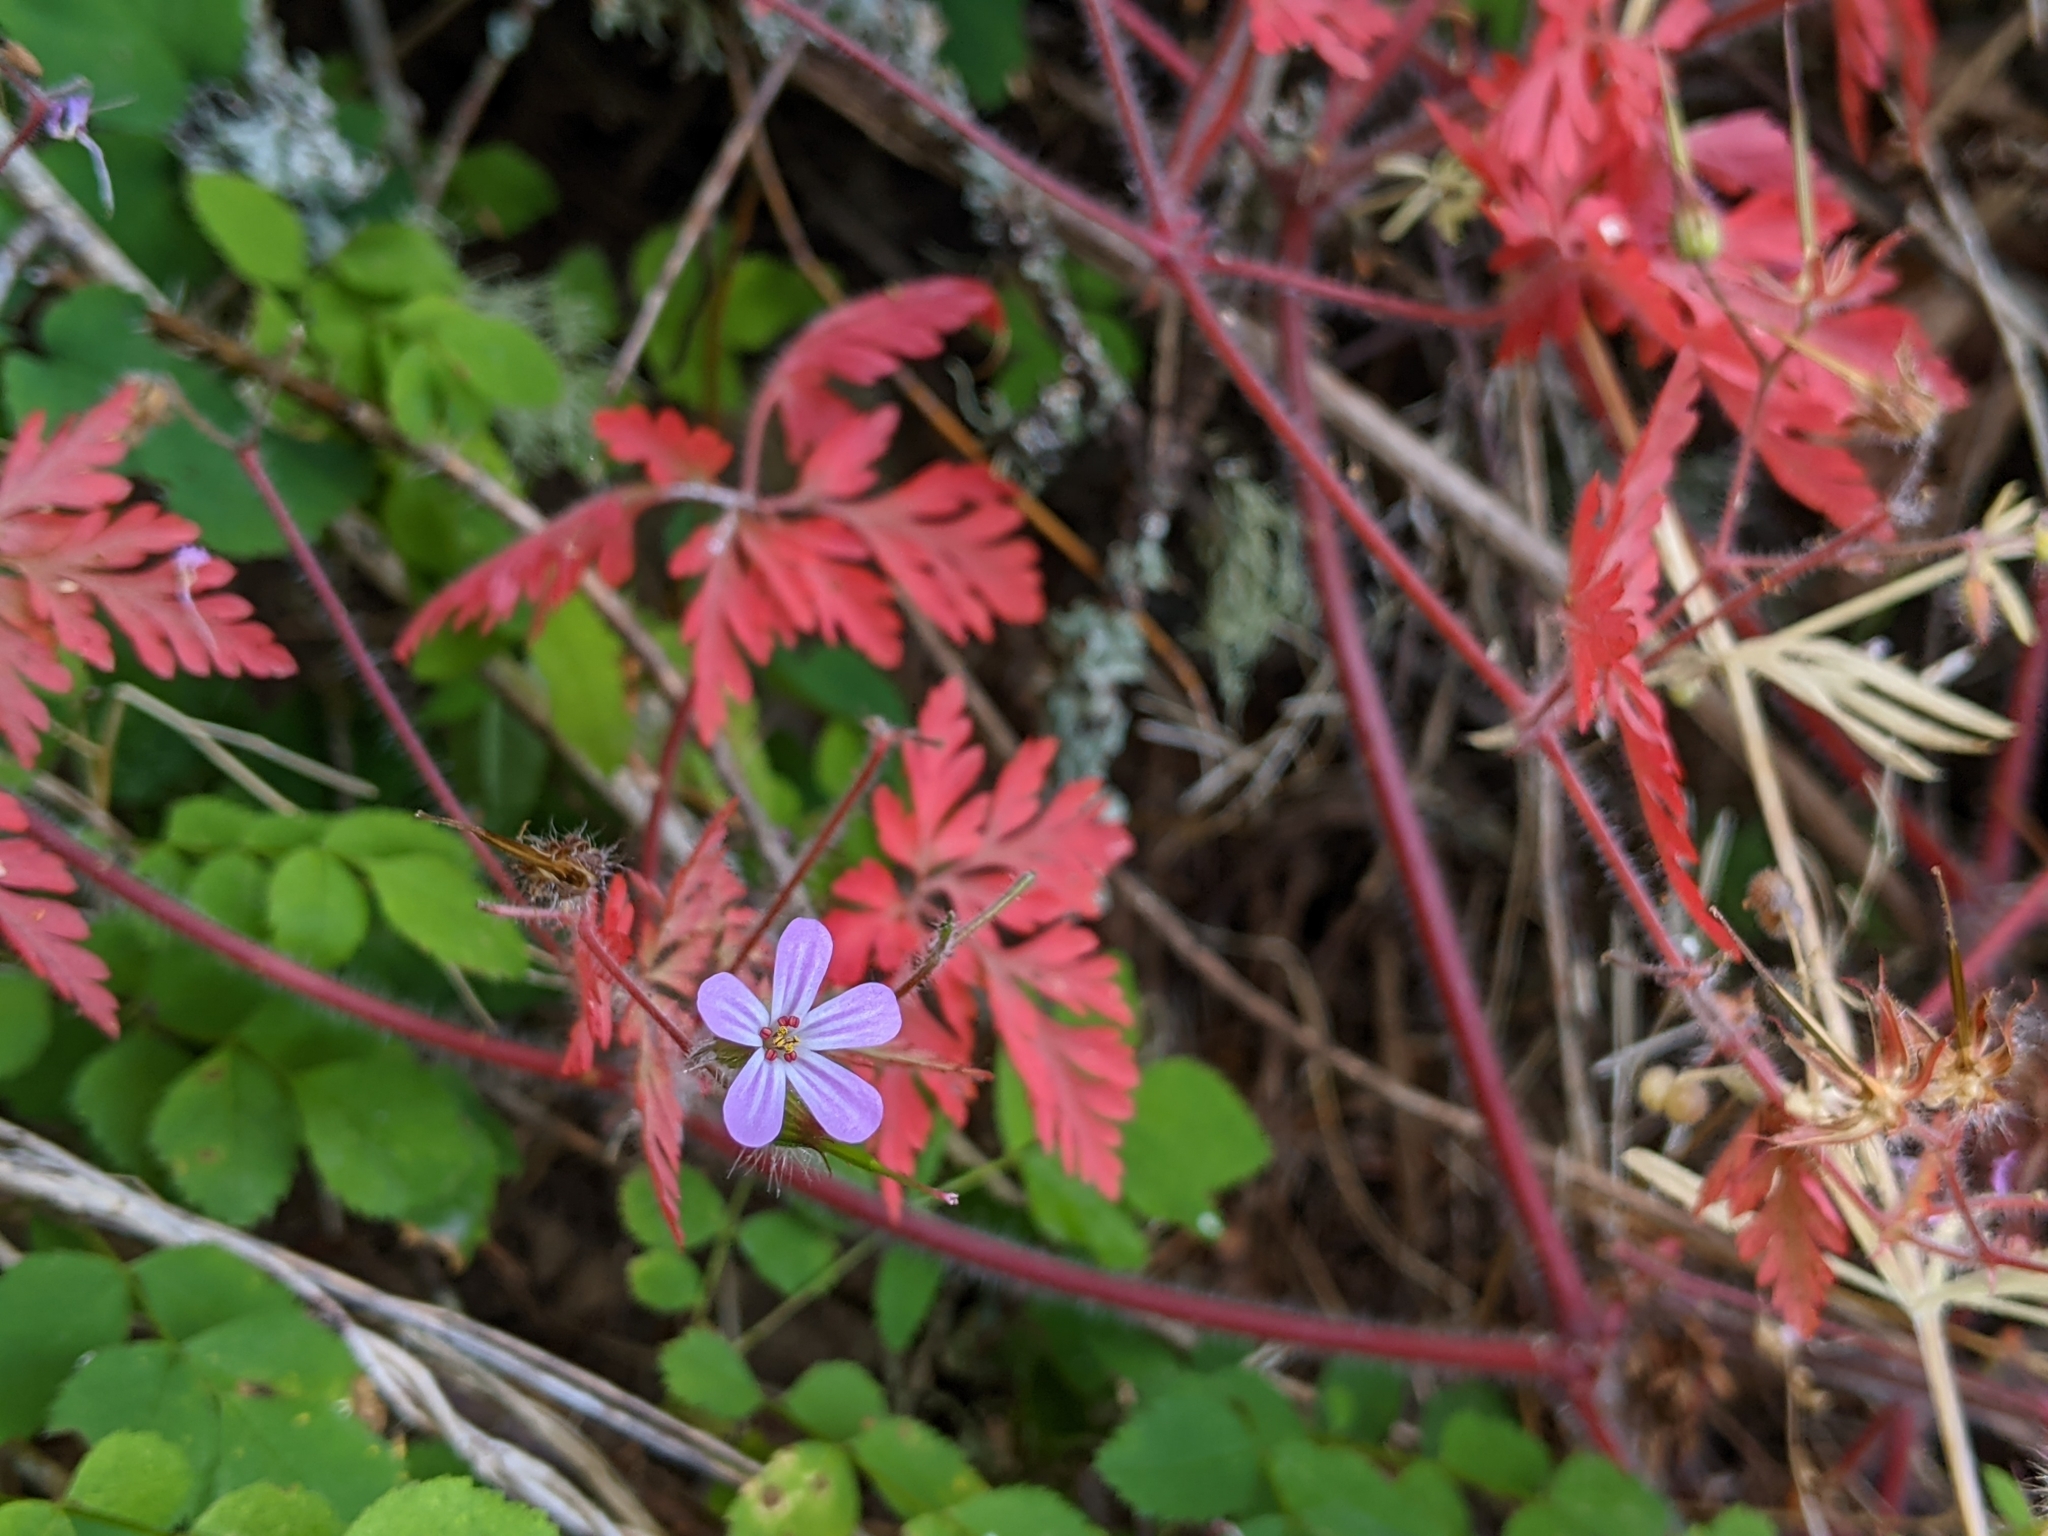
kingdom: Plantae
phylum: Tracheophyta
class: Magnoliopsida
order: Geraniales
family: Geraniaceae
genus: Geranium
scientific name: Geranium robertianum
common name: Herb-robert
